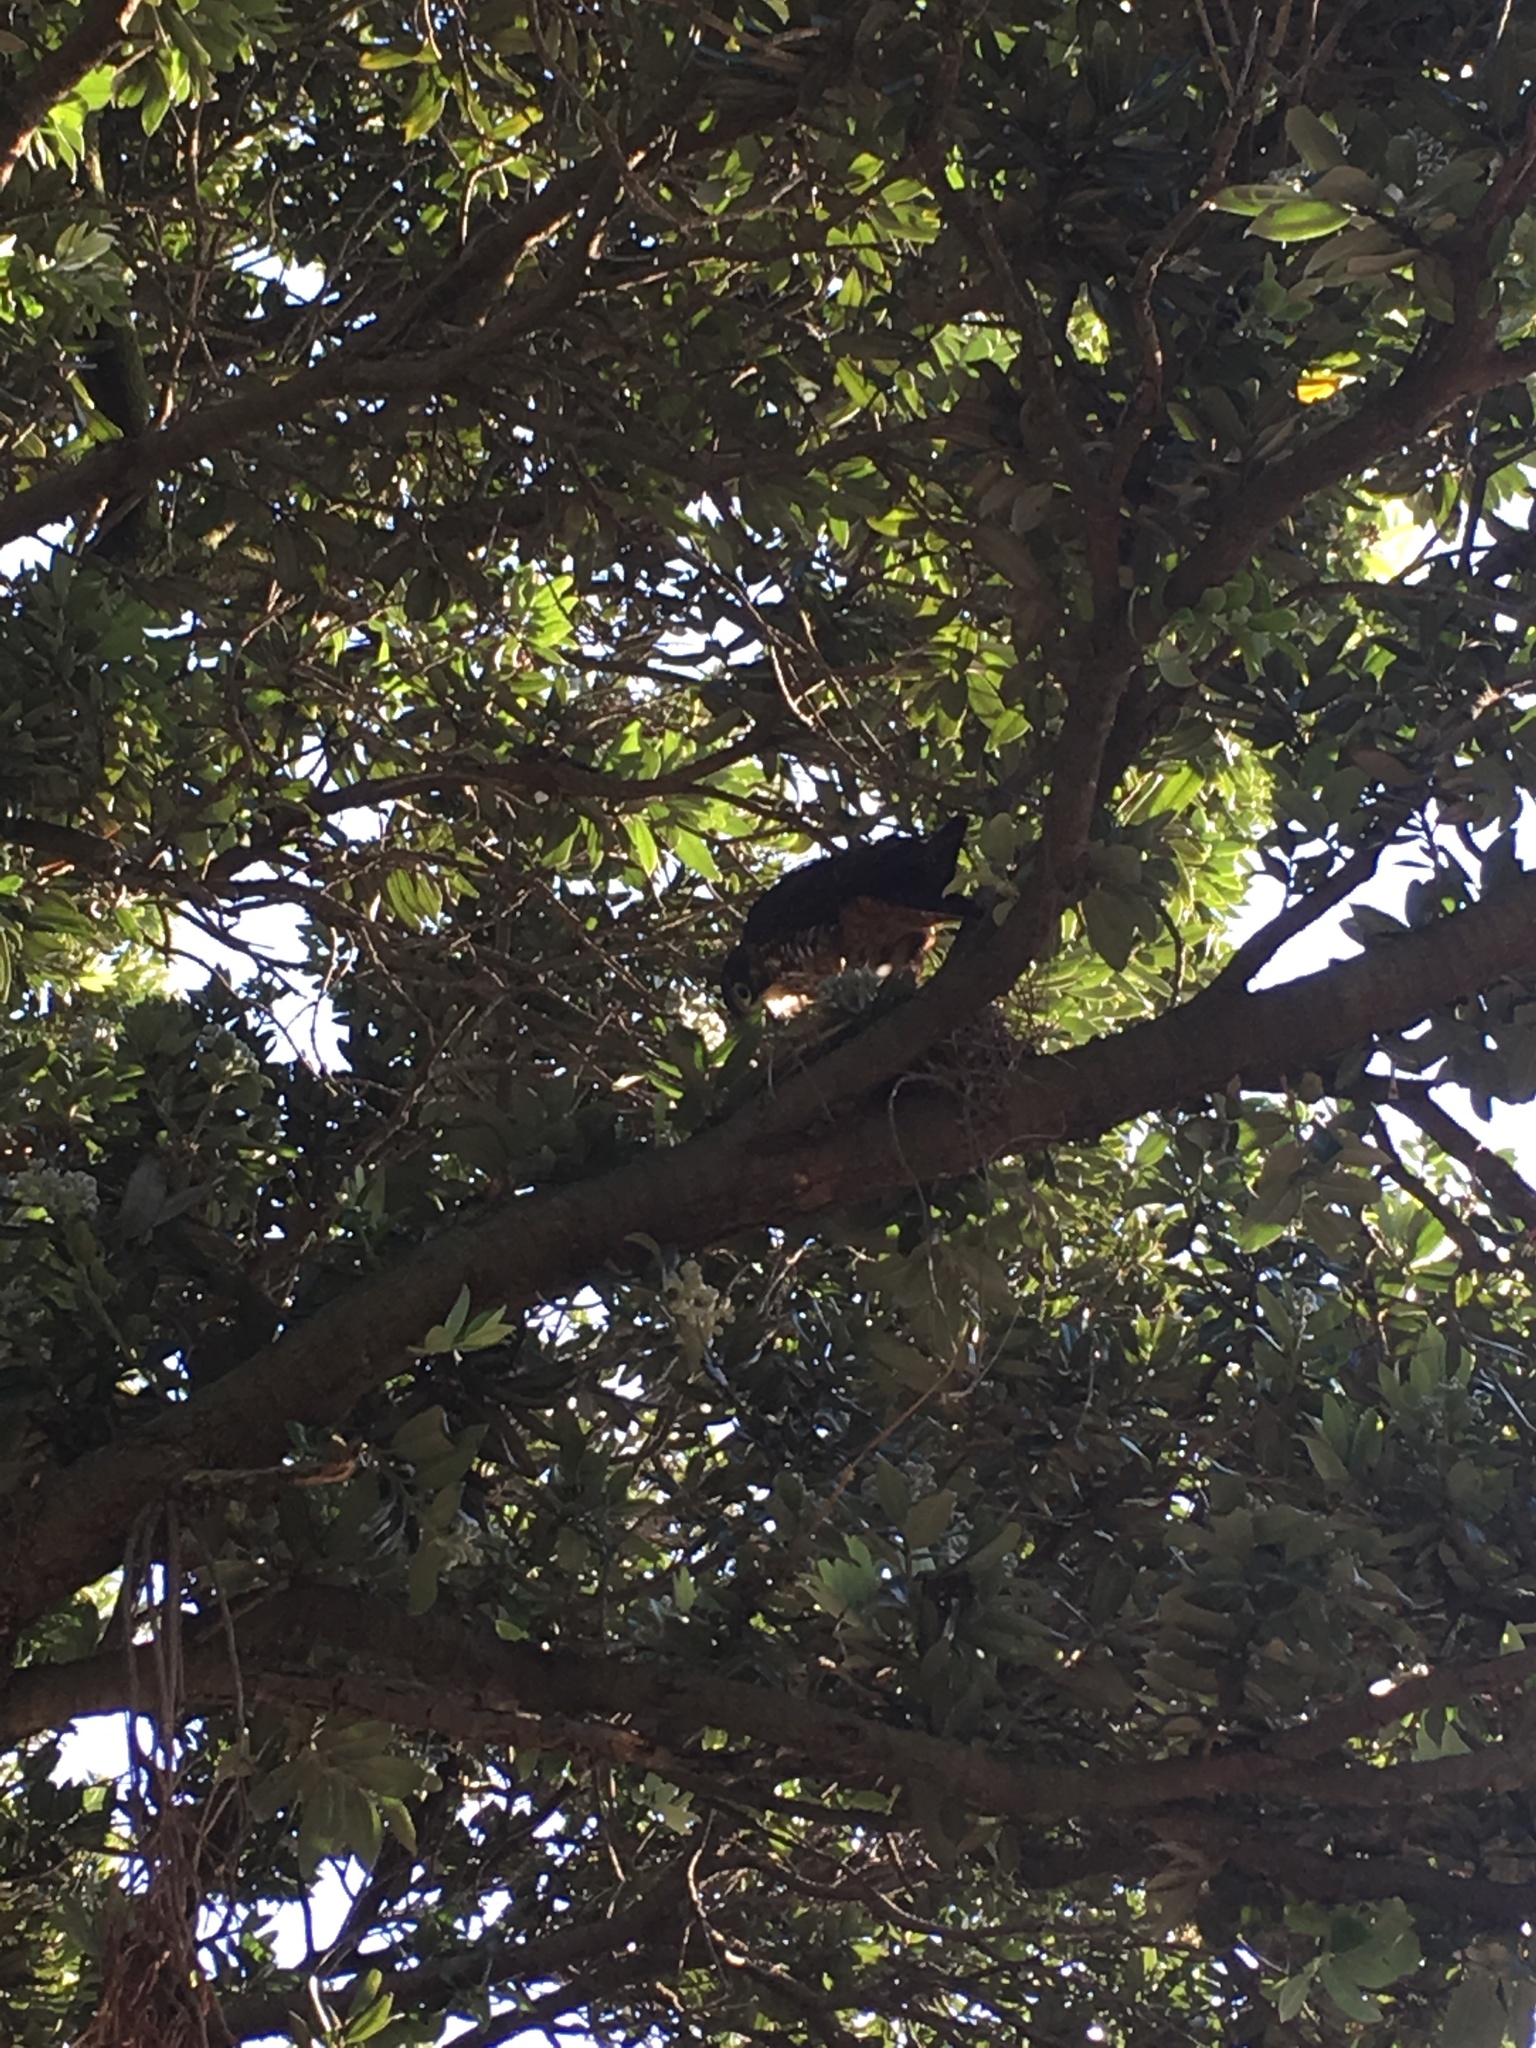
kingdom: Animalia
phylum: Chordata
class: Aves
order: Falconiformes
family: Falconidae
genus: Falco
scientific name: Falco novaeseelandiae
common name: New zealand falcon
